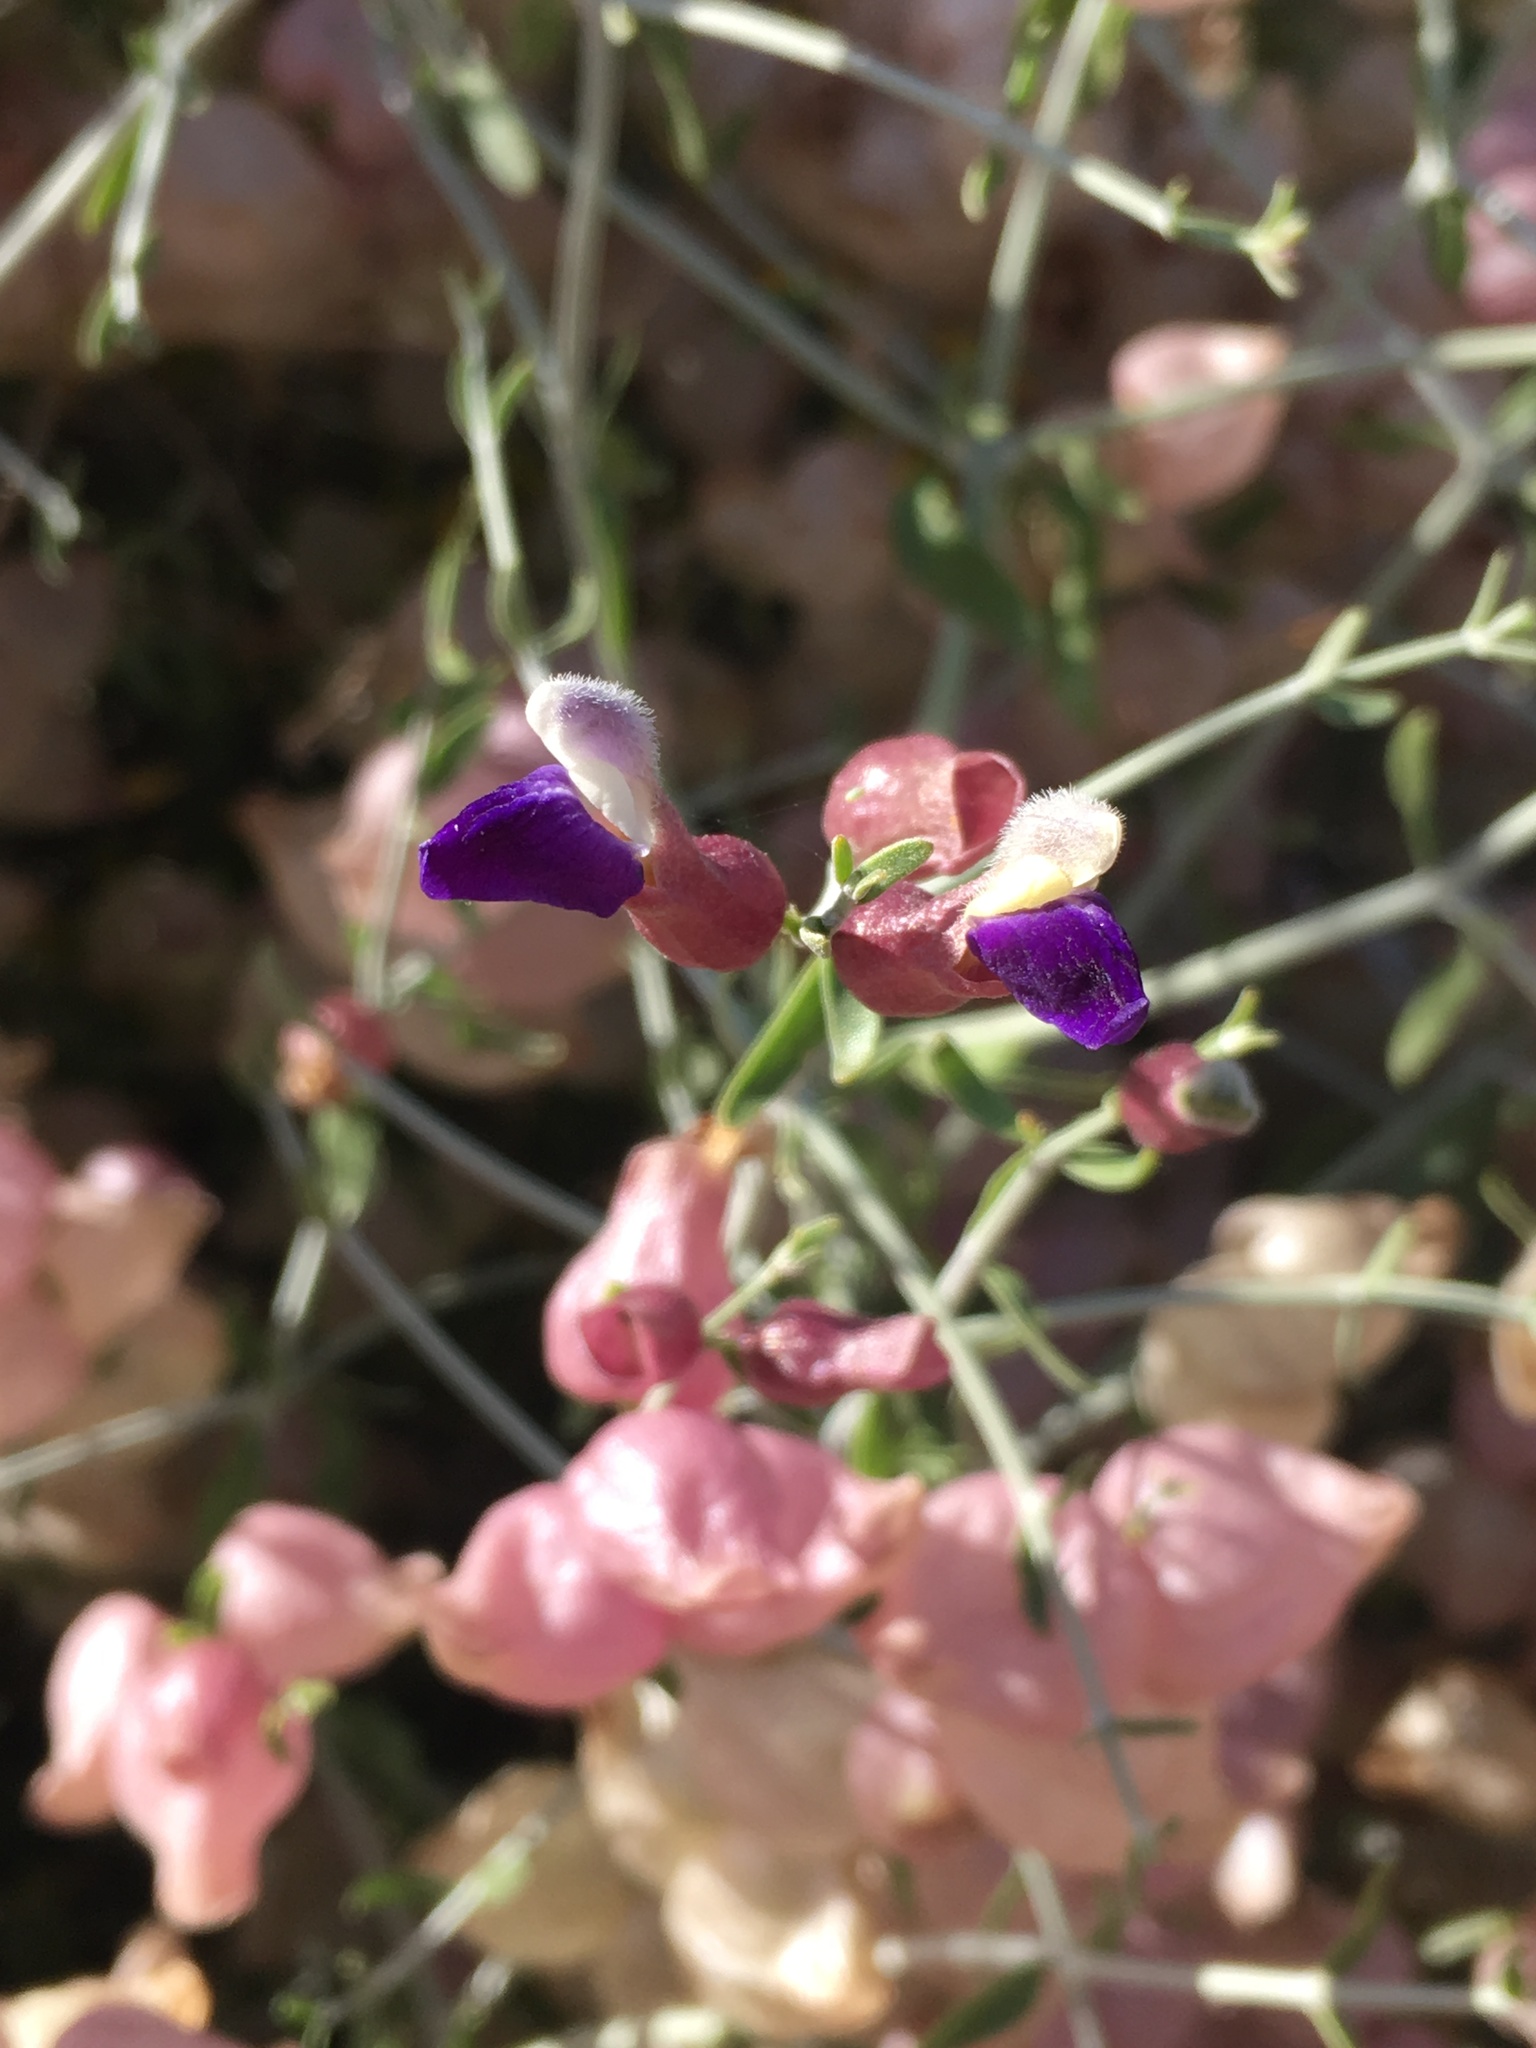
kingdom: Plantae
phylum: Tracheophyta
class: Magnoliopsida
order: Lamiales
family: Lamiaceae
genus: Scutellaria
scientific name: Scutellaria mexicana
